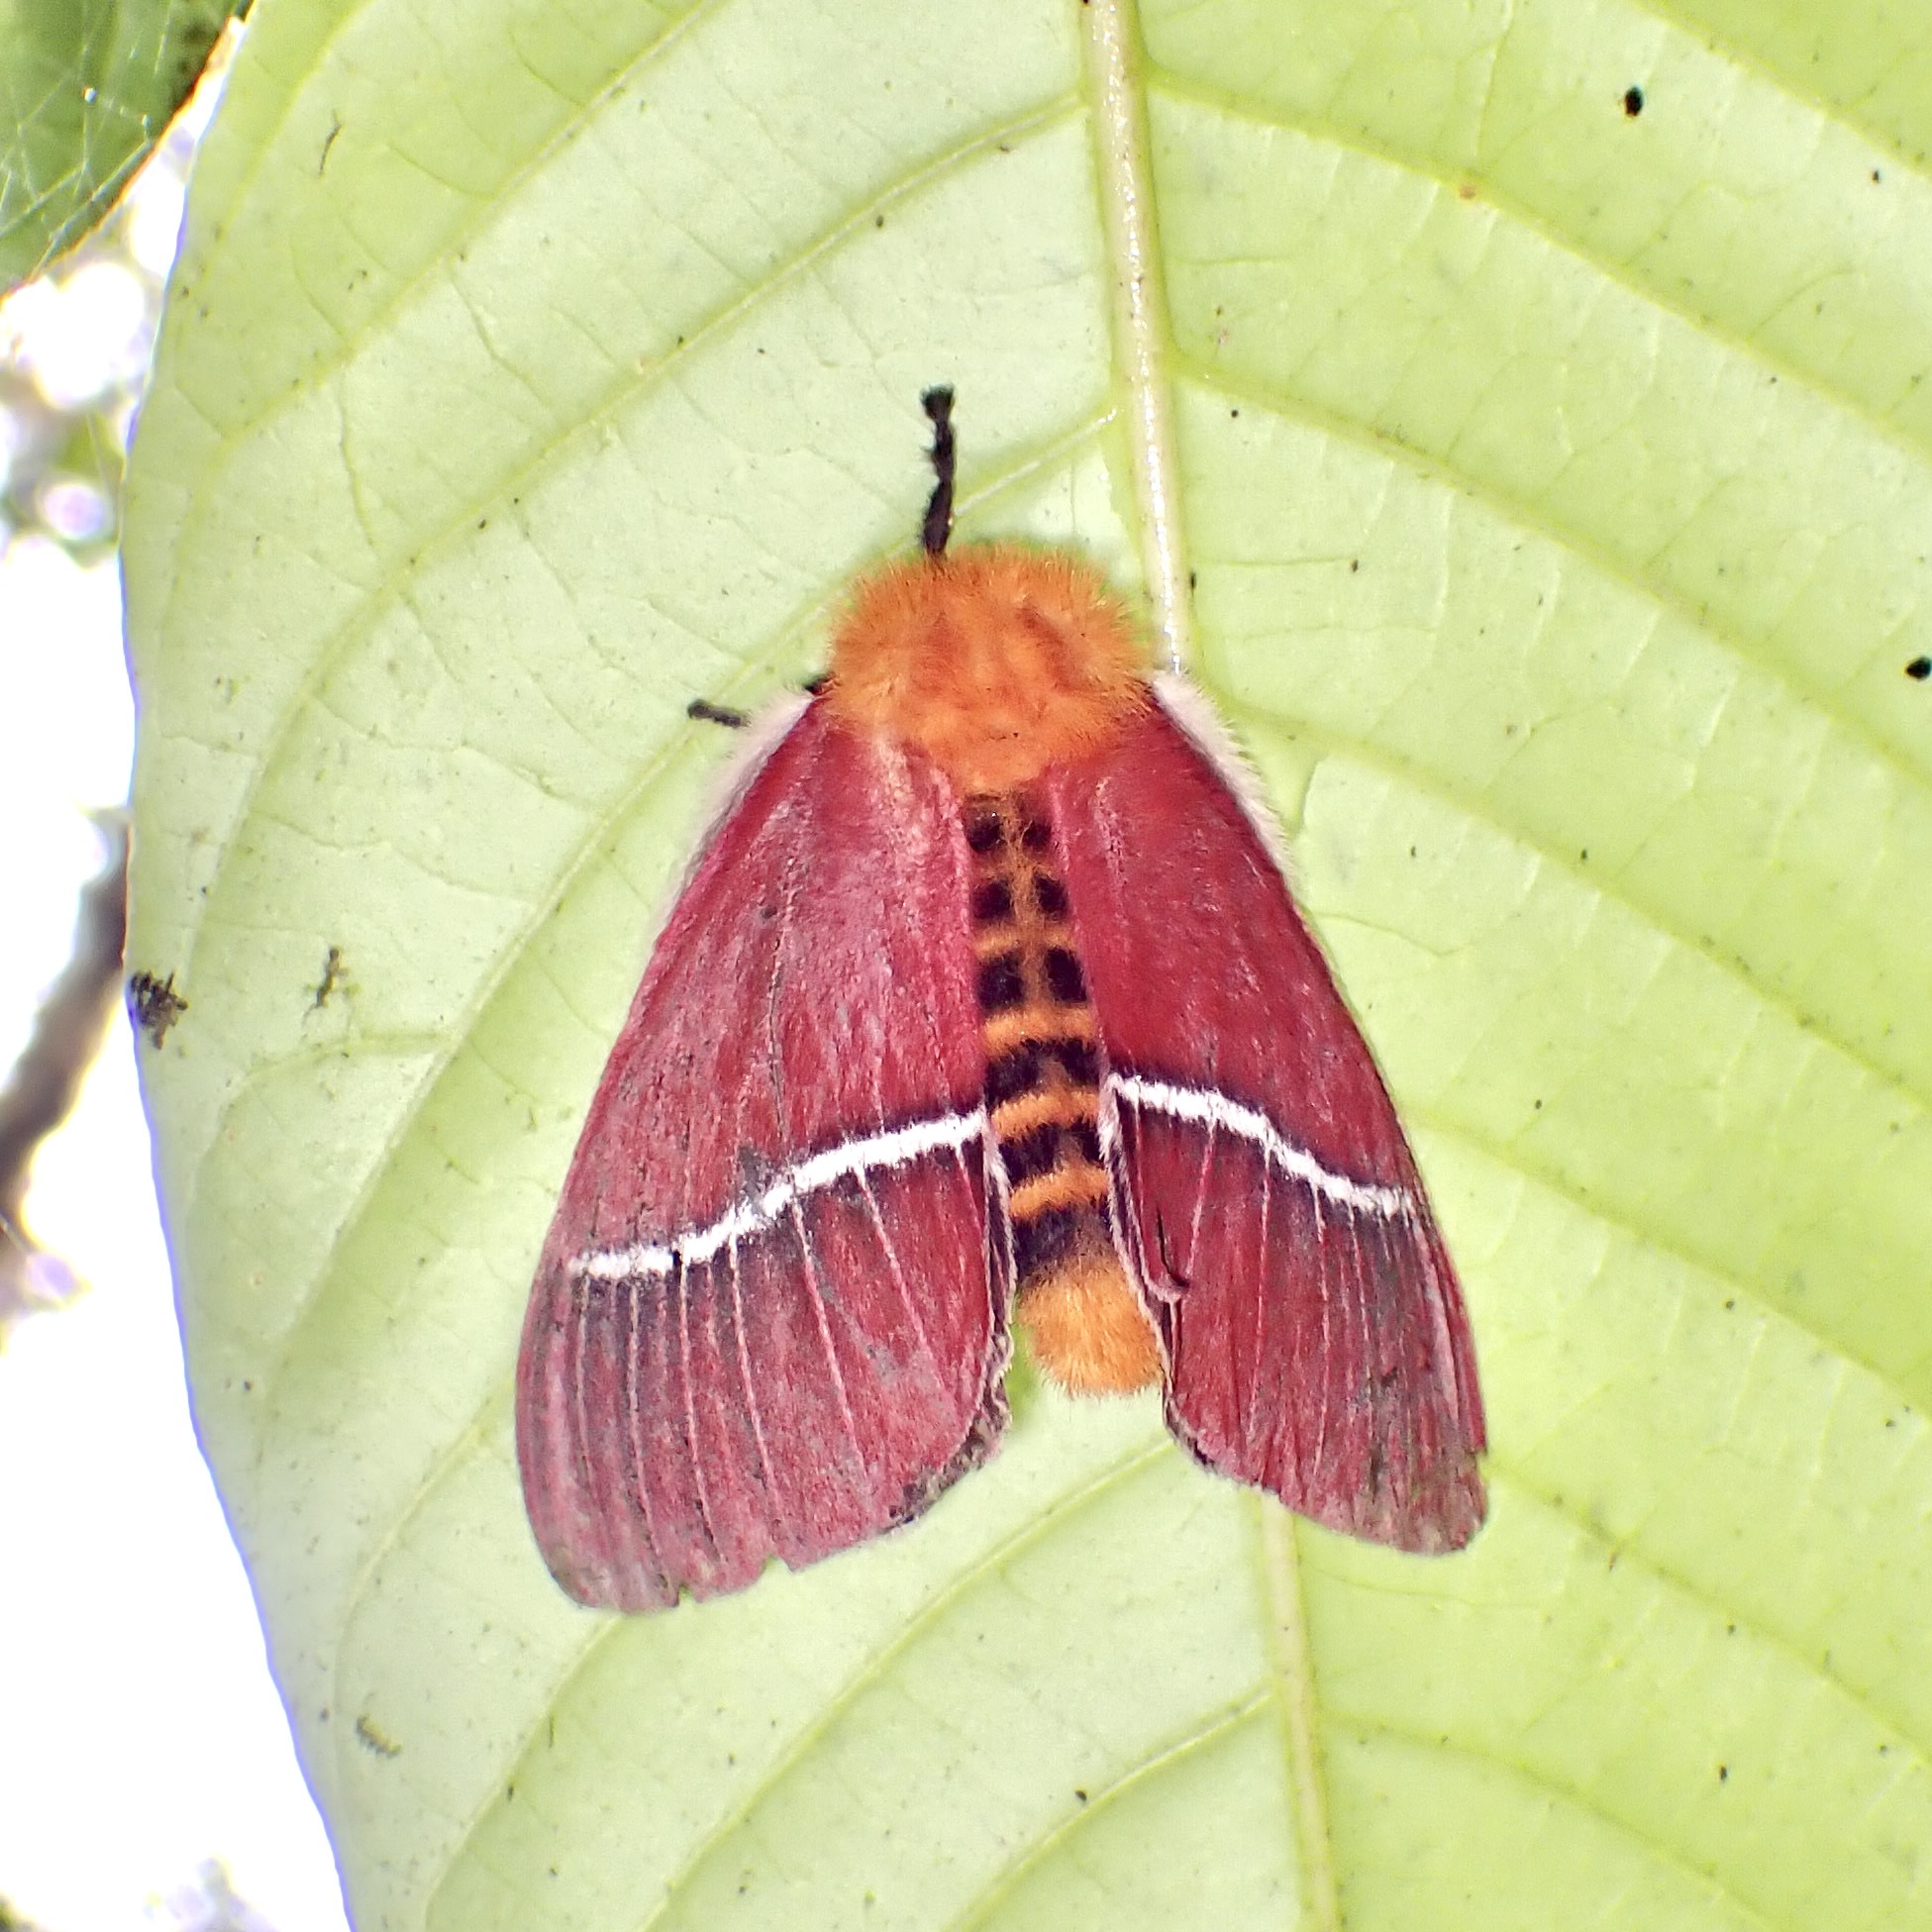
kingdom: Animalia
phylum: Arthropoda
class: Insecta
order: Lepidoptera
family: Saturniidae
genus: Pseudodirphia
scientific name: Pseudodirphia menander
